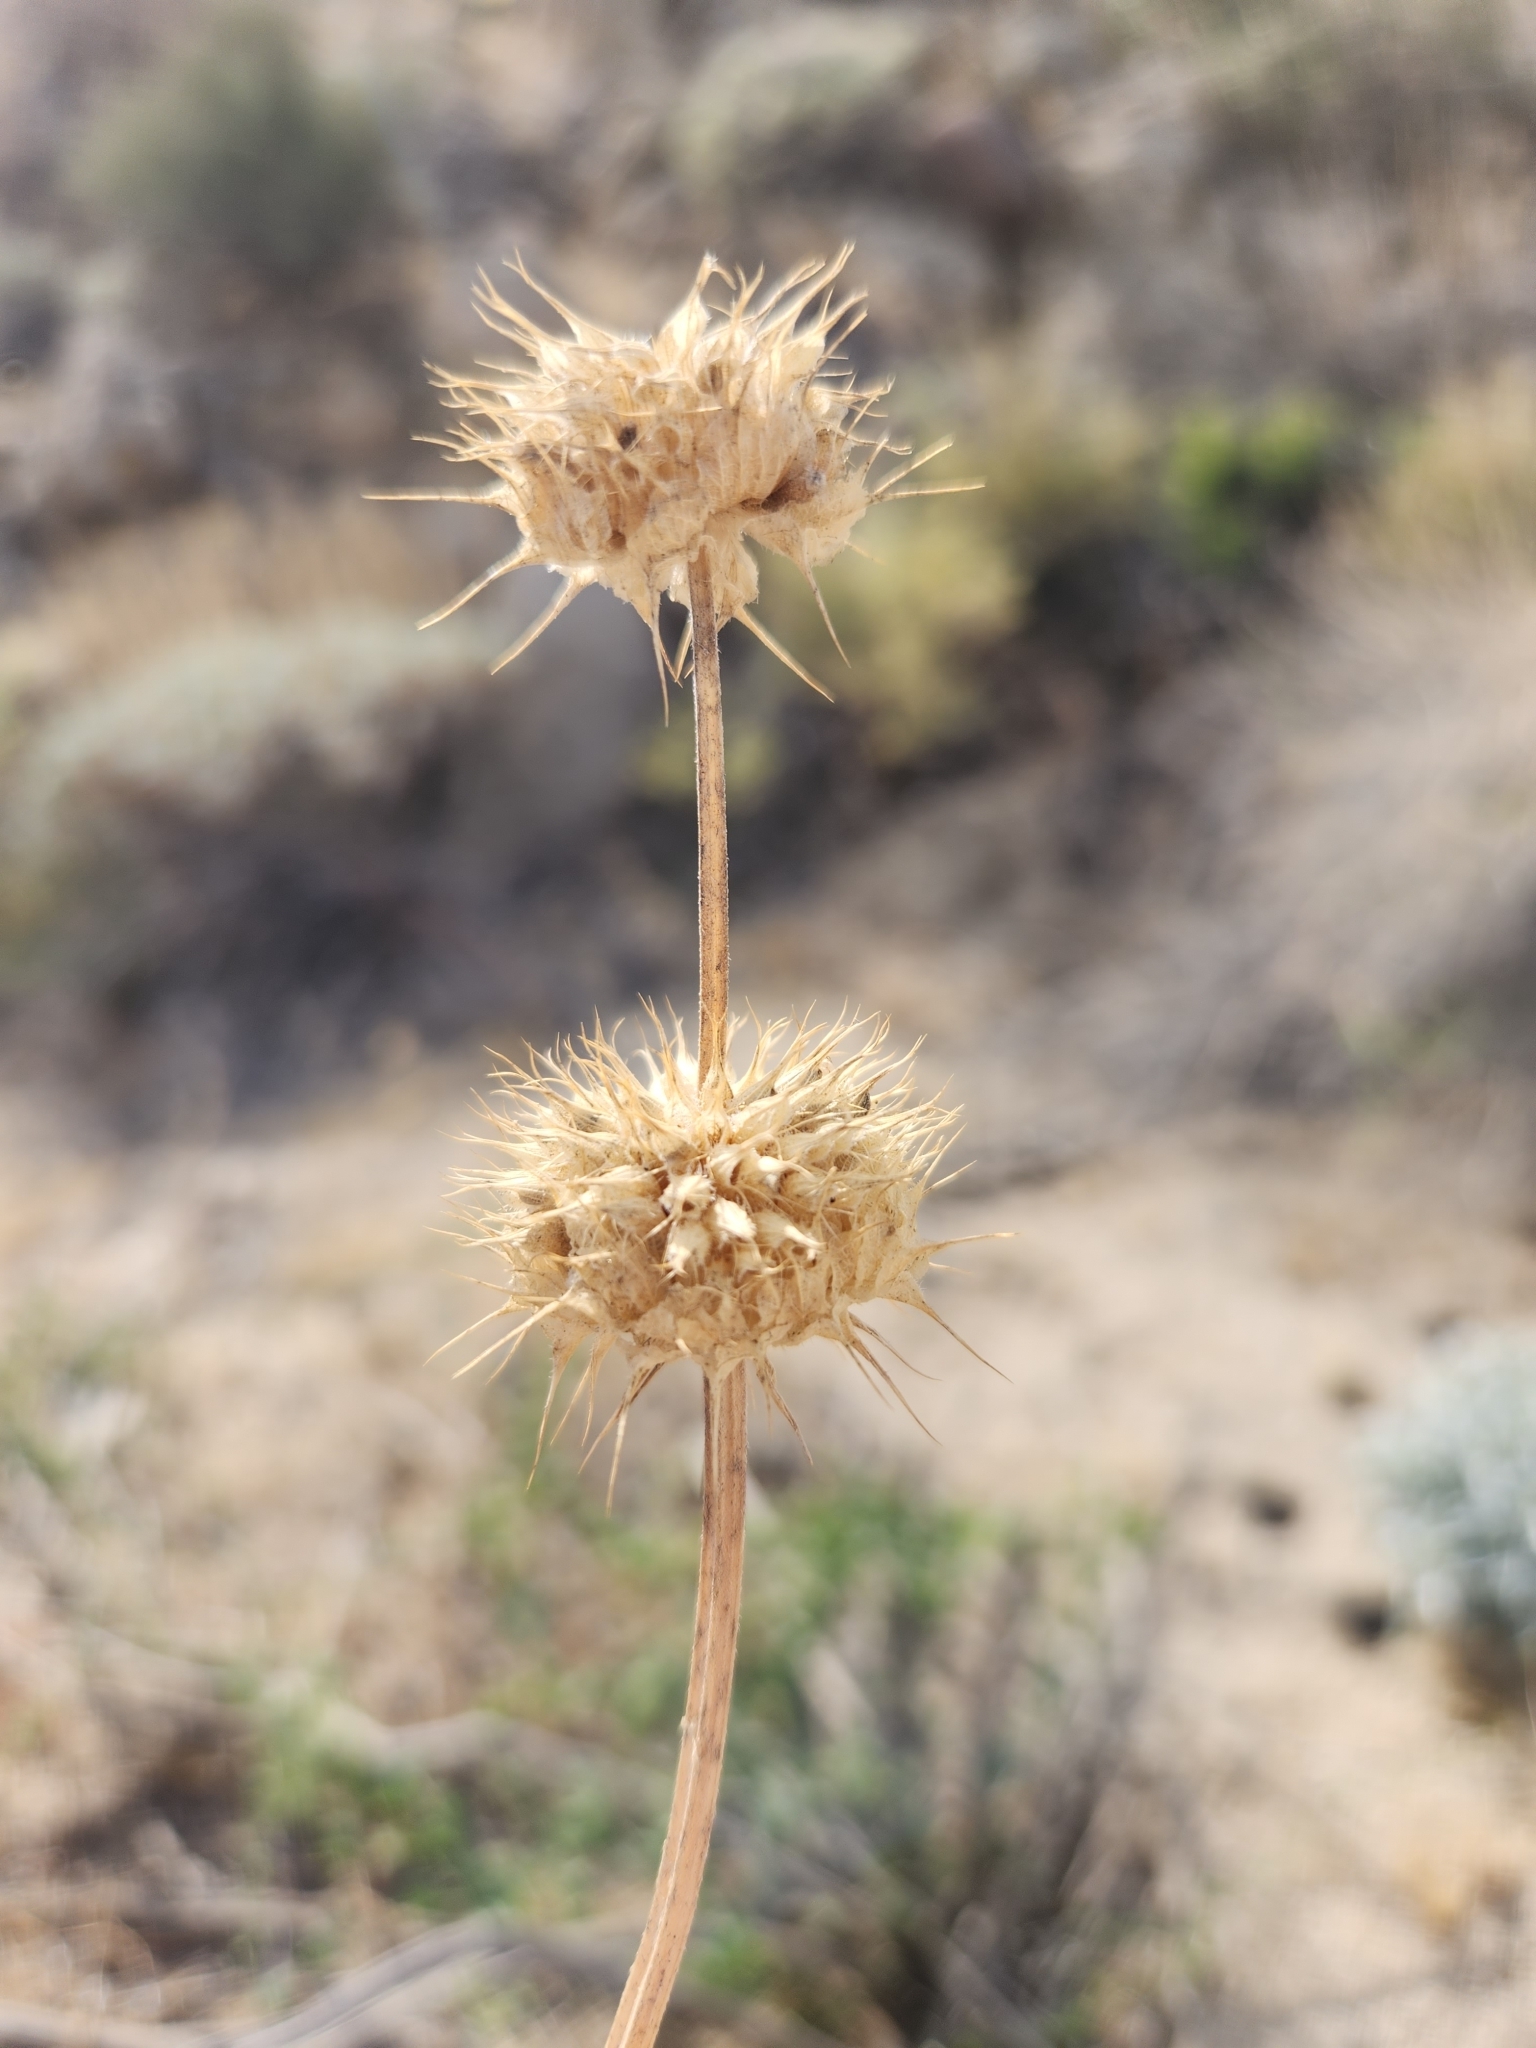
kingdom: Plantae
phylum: Tracheophyta
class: Magnoliopsida
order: Lamiales
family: Lamiaceae
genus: Salvia
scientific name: Salvia columbariae
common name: Chia
